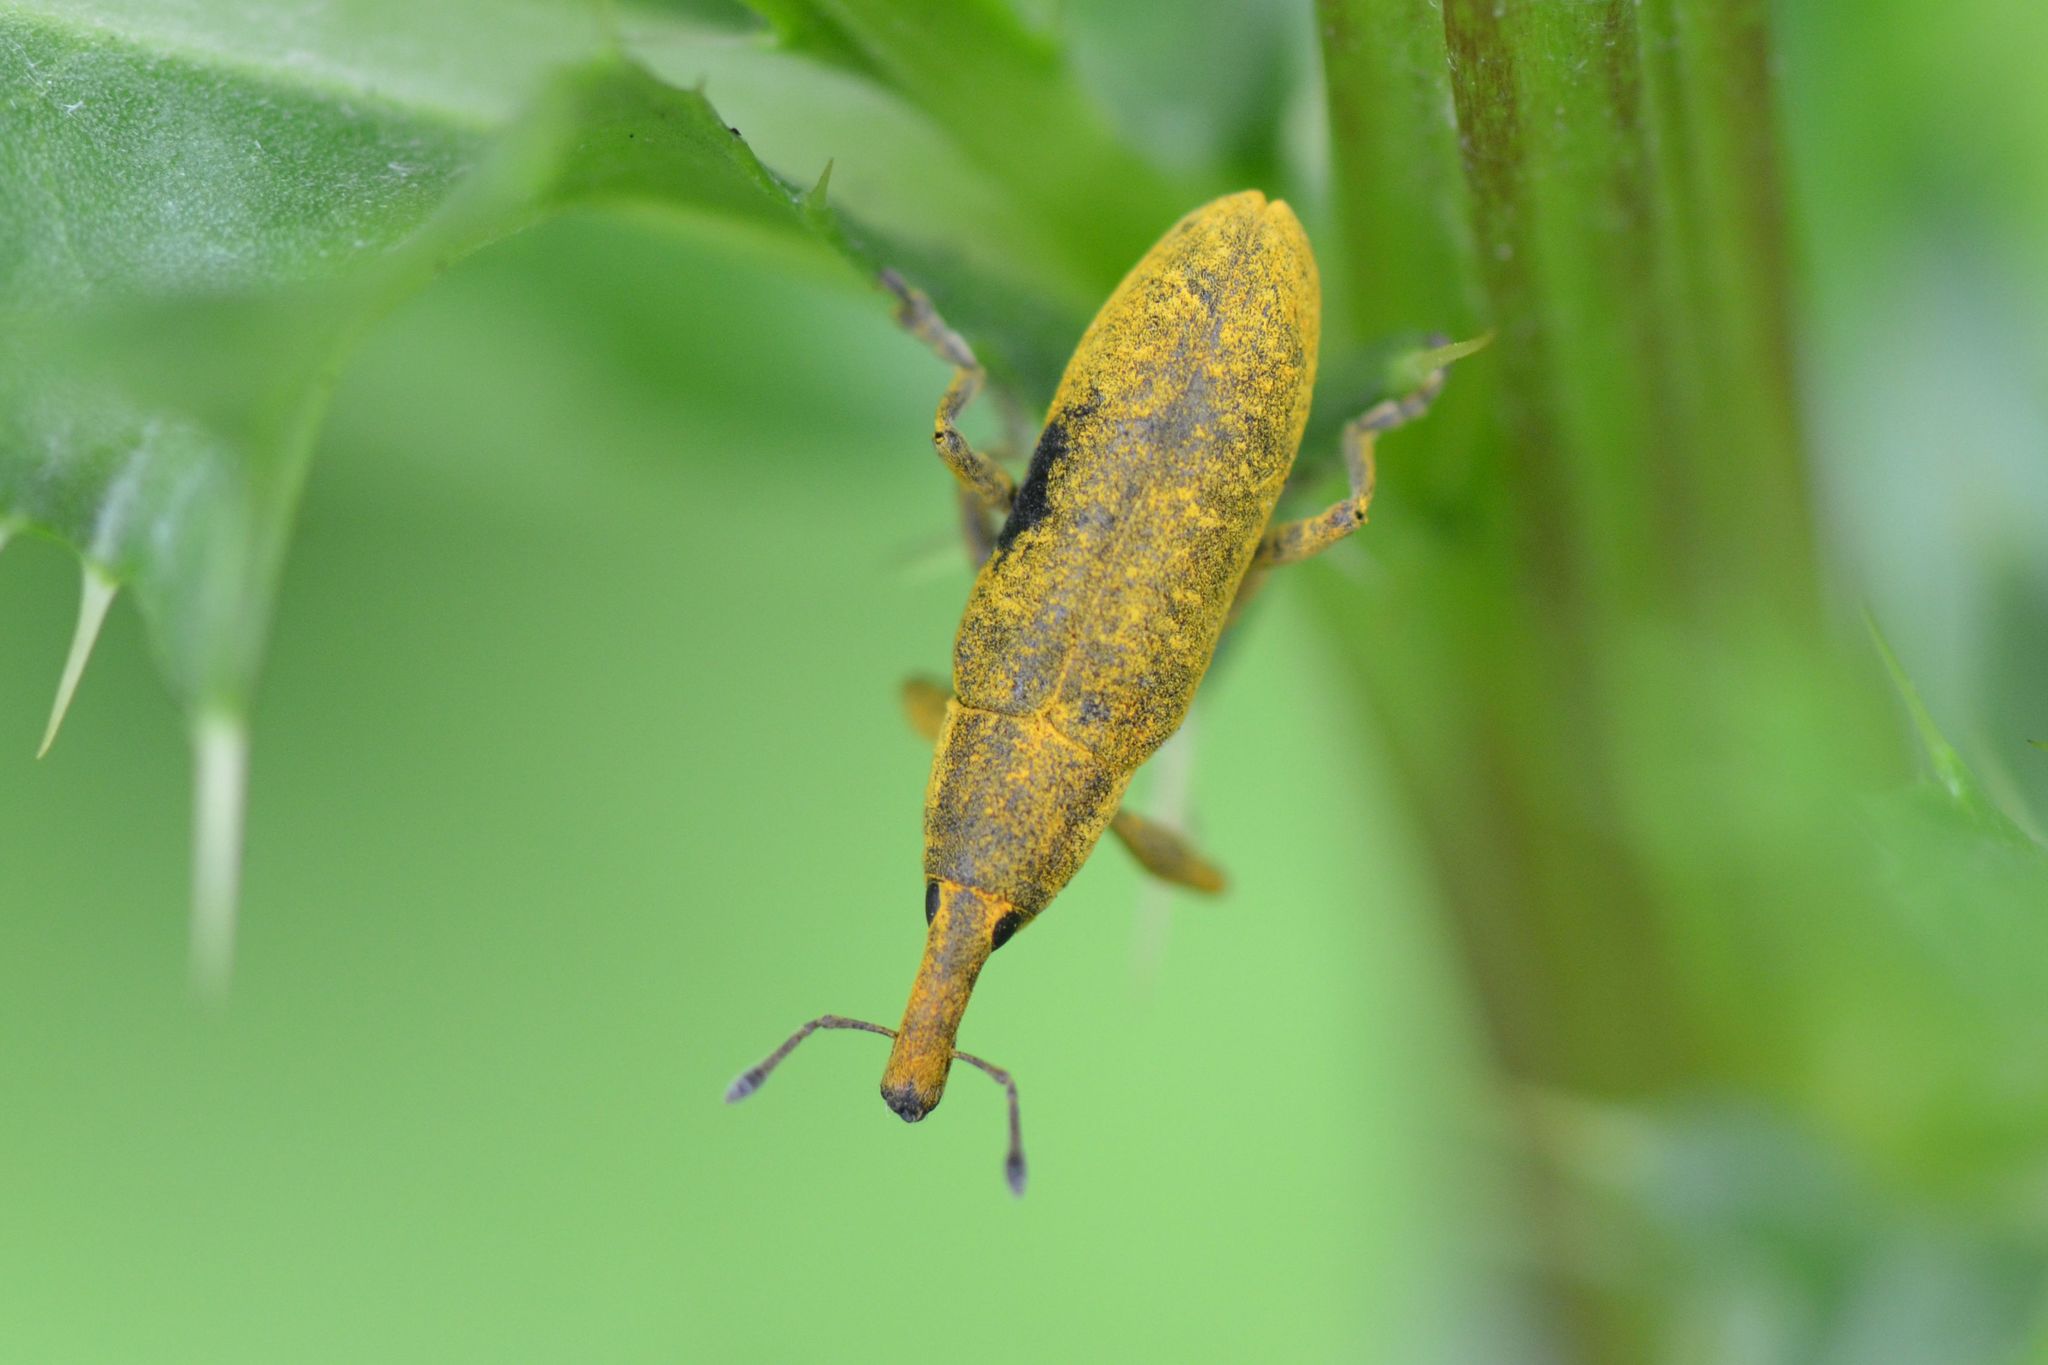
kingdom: Animalia
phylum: Arthropoda
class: Insecta
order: Coleoptera
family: Curculionidae
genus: Lixus
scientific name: Lixus pulverulentus
